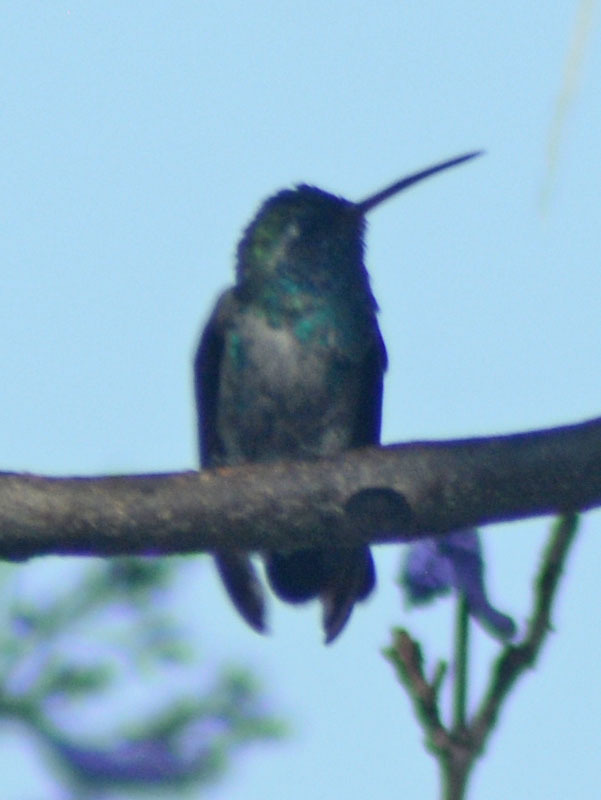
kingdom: Animalia
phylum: Chordata
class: Aves
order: Apodiformes
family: Trochilidae
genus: Cynanthus
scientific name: Cynanthus latirostris
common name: Broad-billed hummingbird
